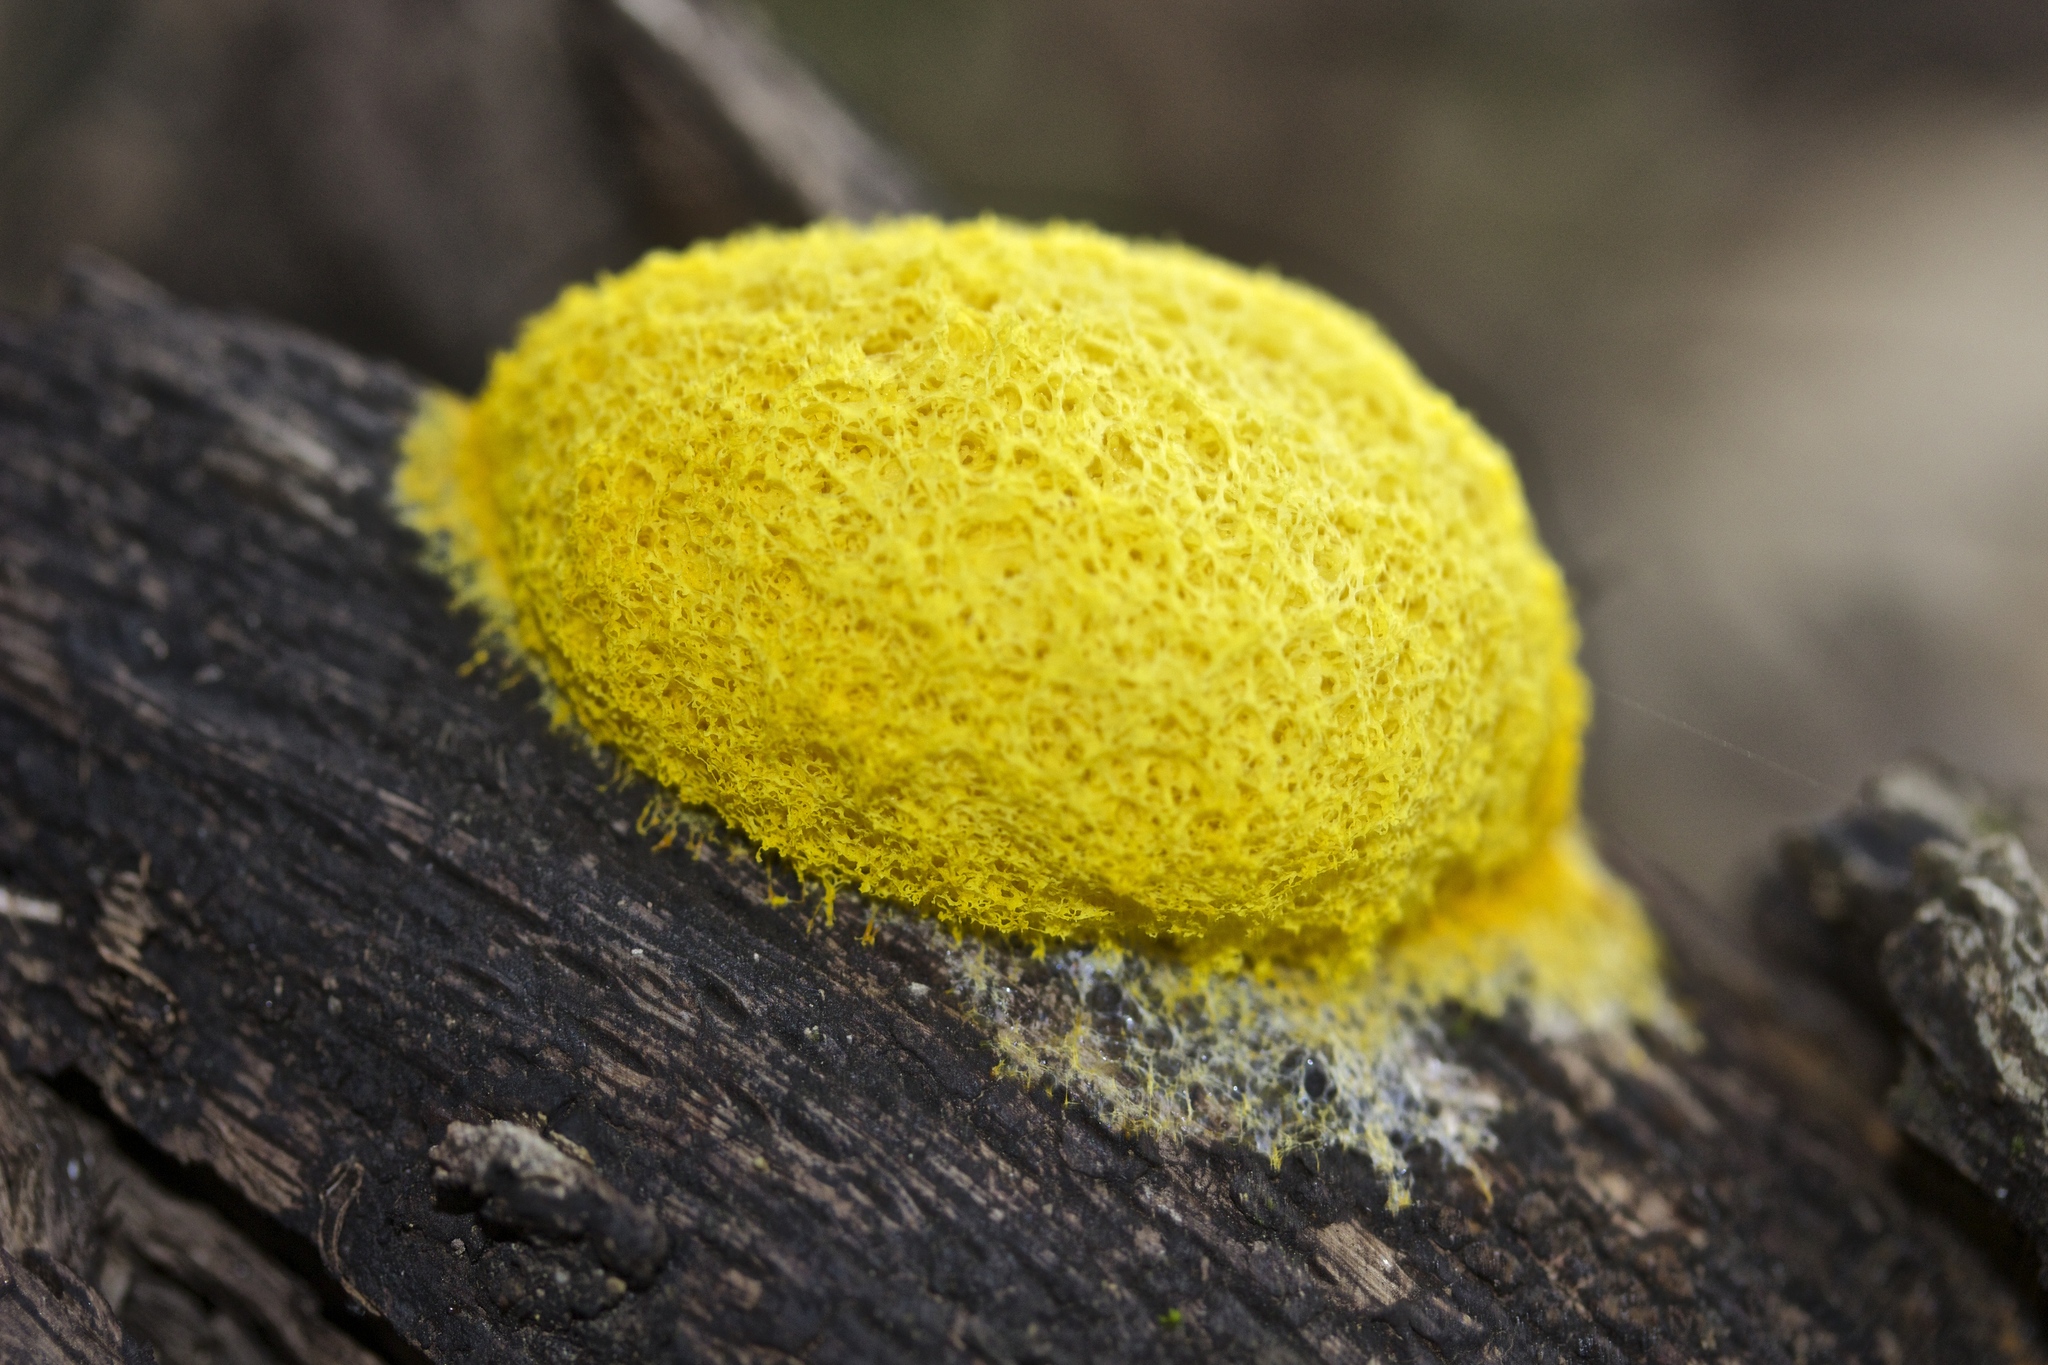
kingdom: Protozoa
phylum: Mycetozoa
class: Myxomycetes
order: Physarales
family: Physaraceae
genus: Fuligo
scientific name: Fuligo septica
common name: Dog vomit slime mold
